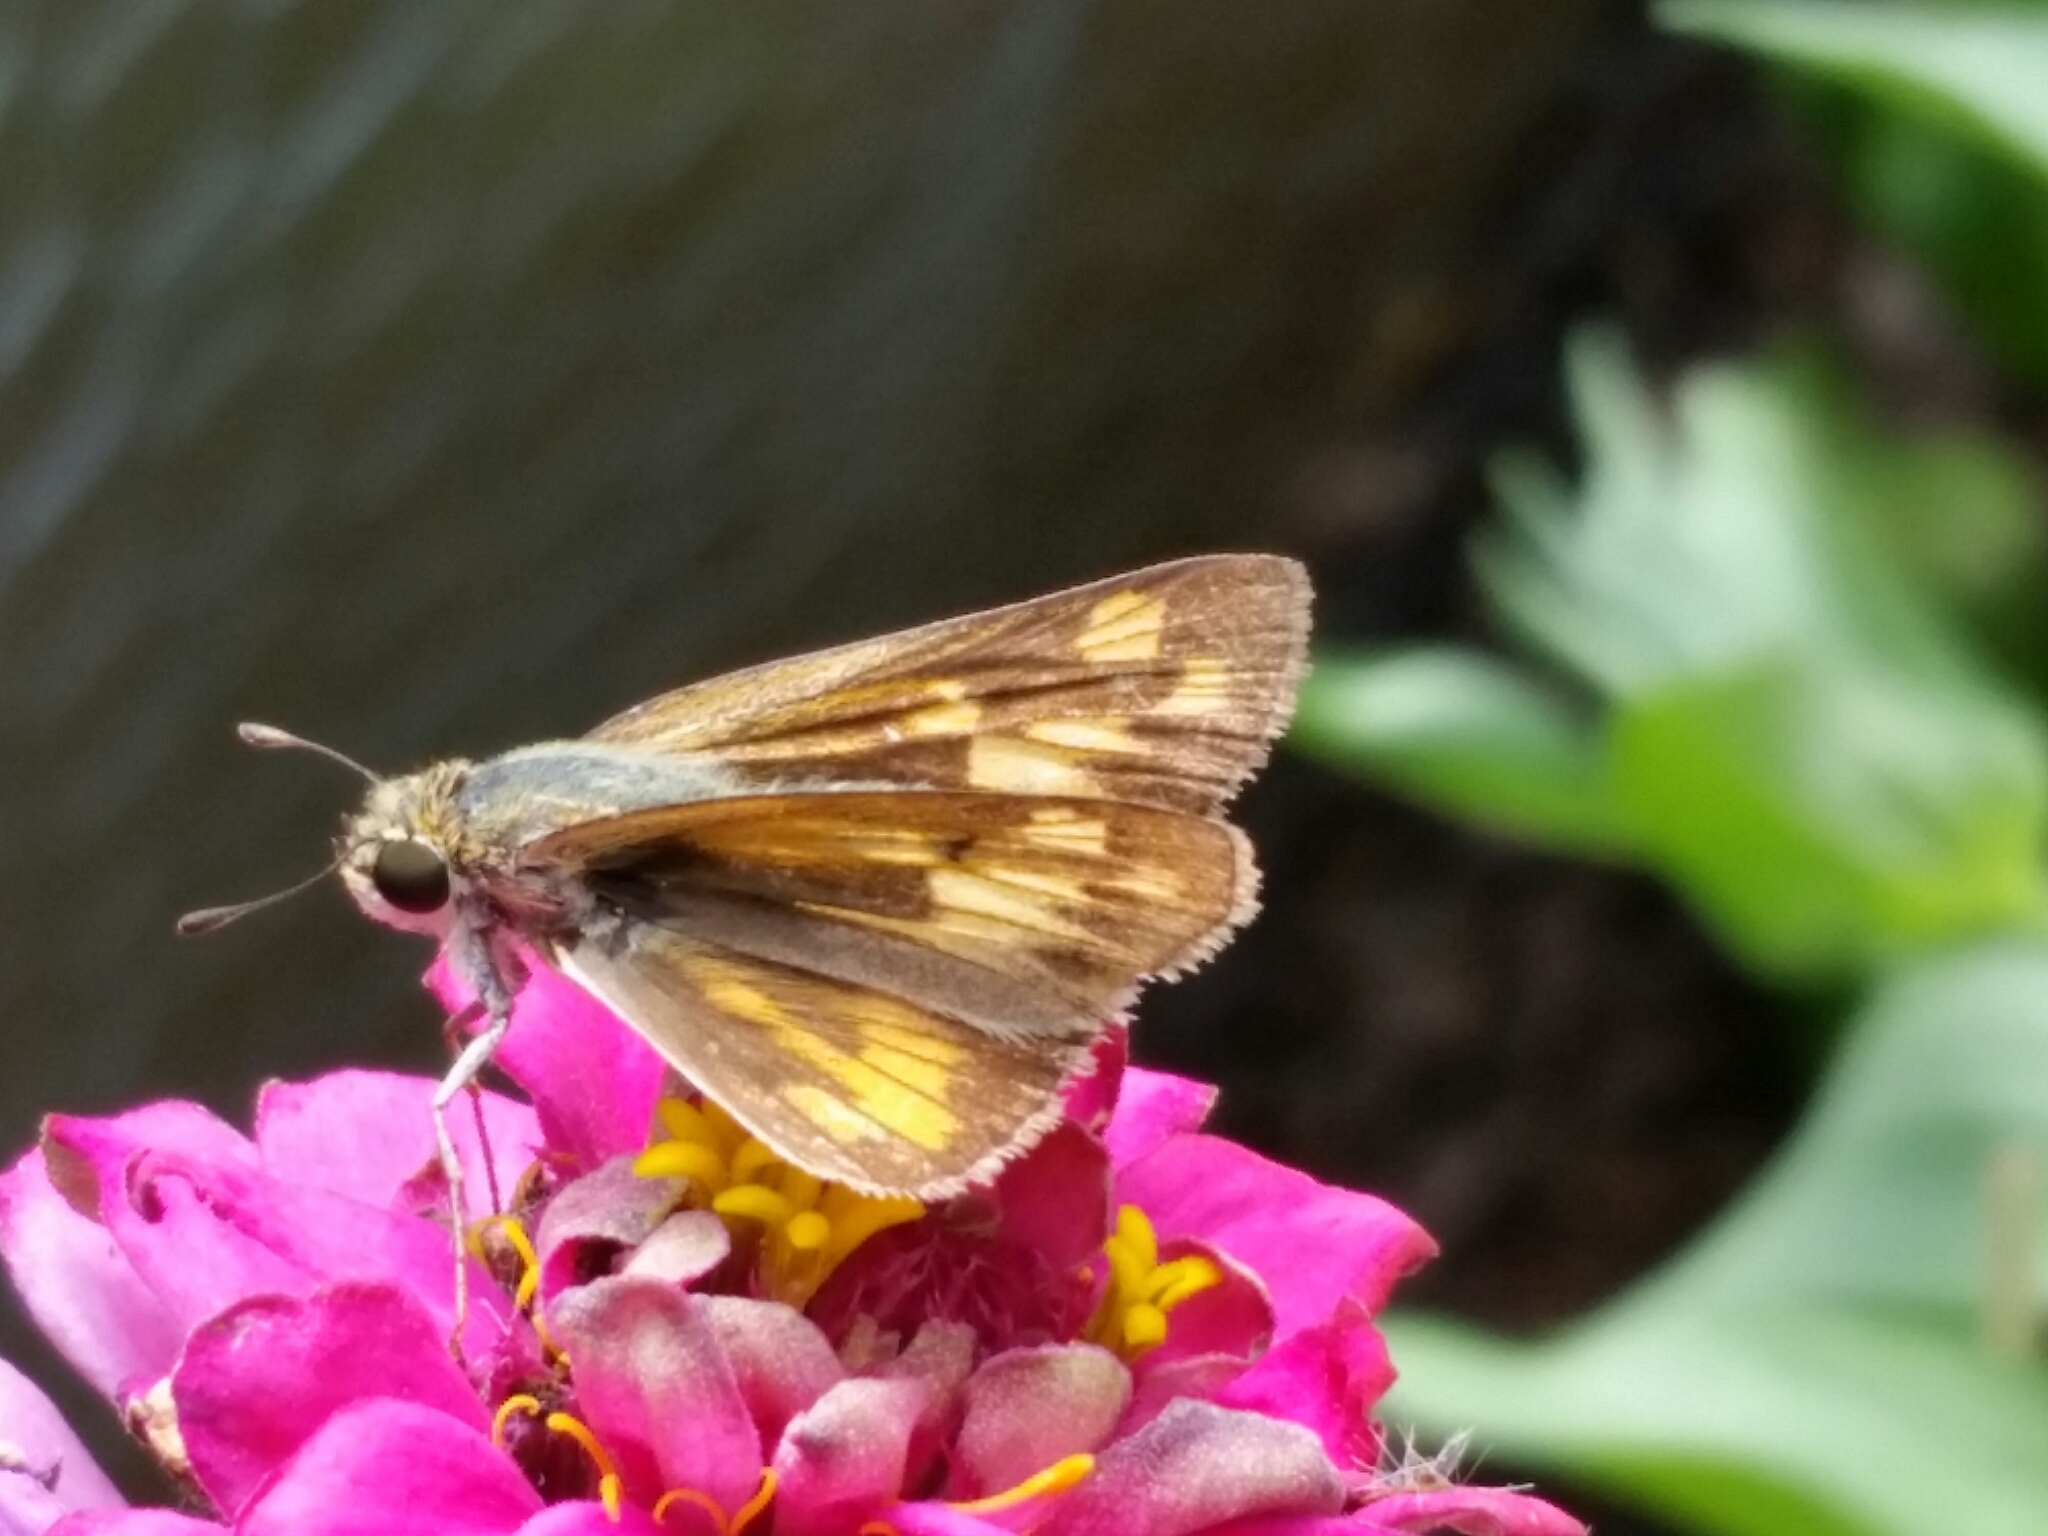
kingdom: Animalia
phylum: Arthropoda
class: Insecta
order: Lepidoptera
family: Hesperiidae
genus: Hylephila
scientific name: Hylephila phyleus
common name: Fiery skipper
